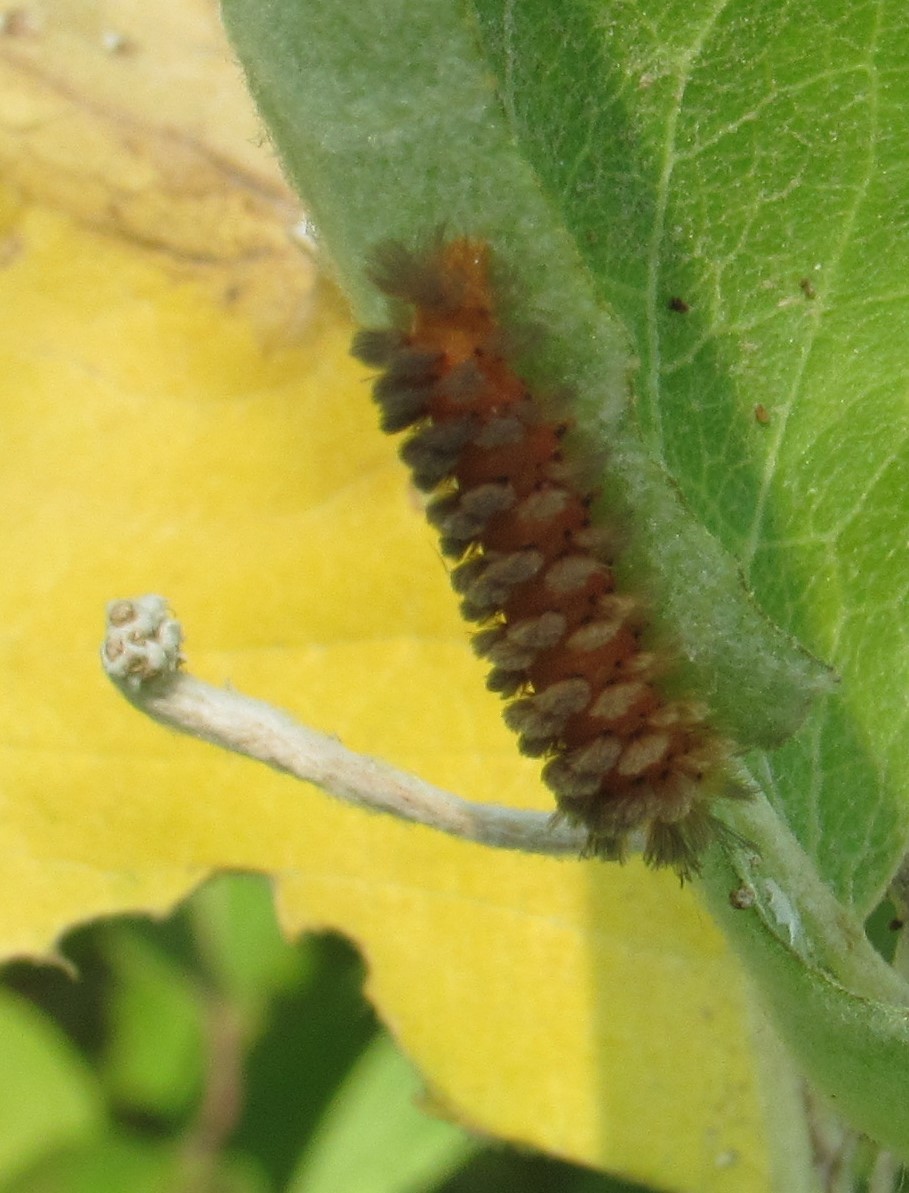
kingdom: Animalia
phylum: Arthropoda
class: Insecta
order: Lepidoptera
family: Erebidae
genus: Cycnia
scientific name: Cycnia collaris
